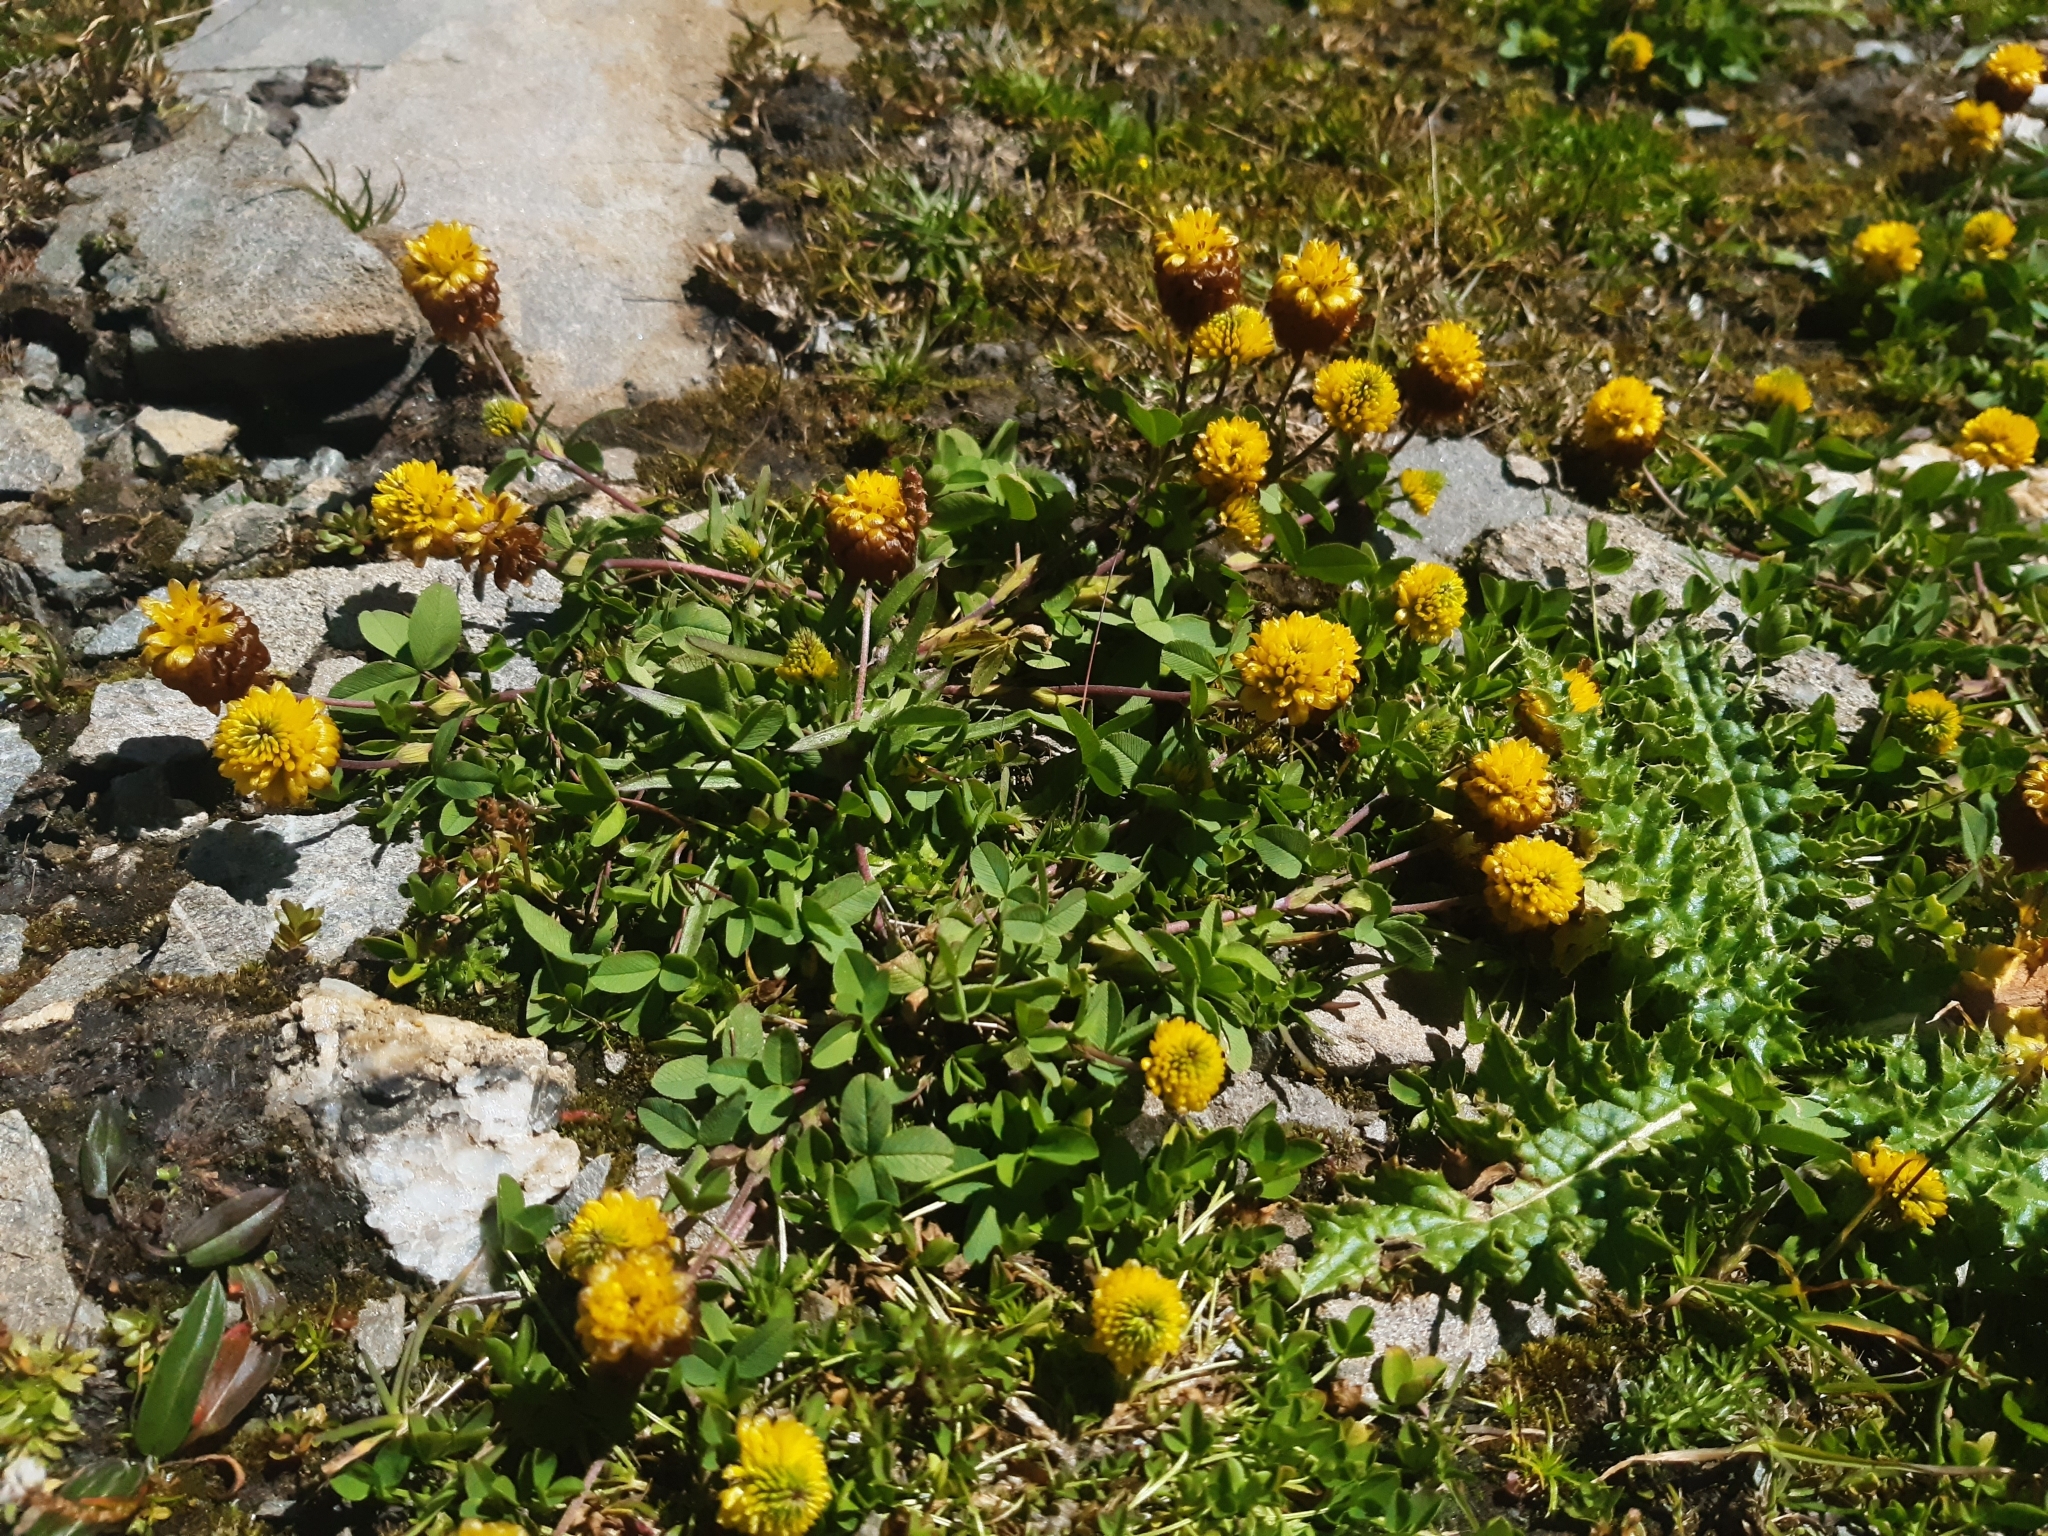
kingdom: Plantae
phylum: Tracheophyta
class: Magnoliopsida
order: Fabales
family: Fabaceae
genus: Trifolium
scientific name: Trifolium badium
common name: Brown clover
